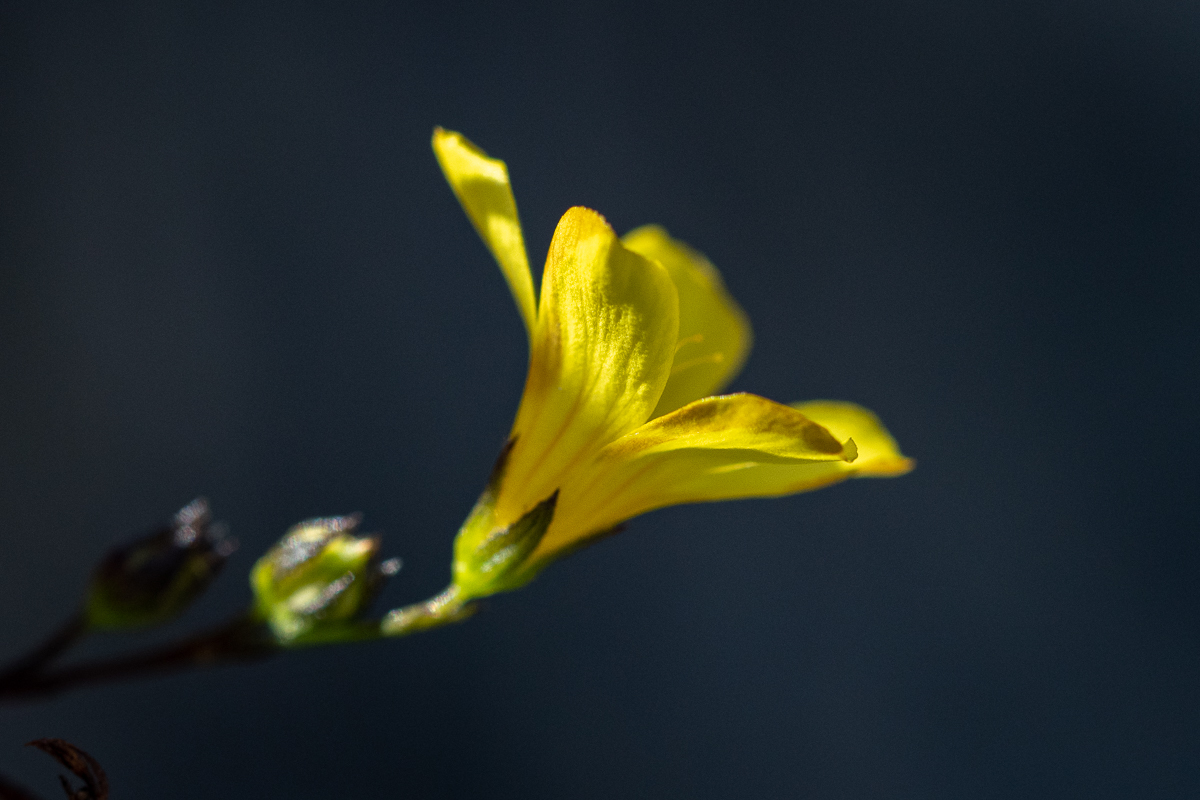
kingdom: Plantae
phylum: Tracheophyta
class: Magnoliopsida
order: Malpighiales
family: Linaceae
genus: Linum
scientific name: Linum africanum
